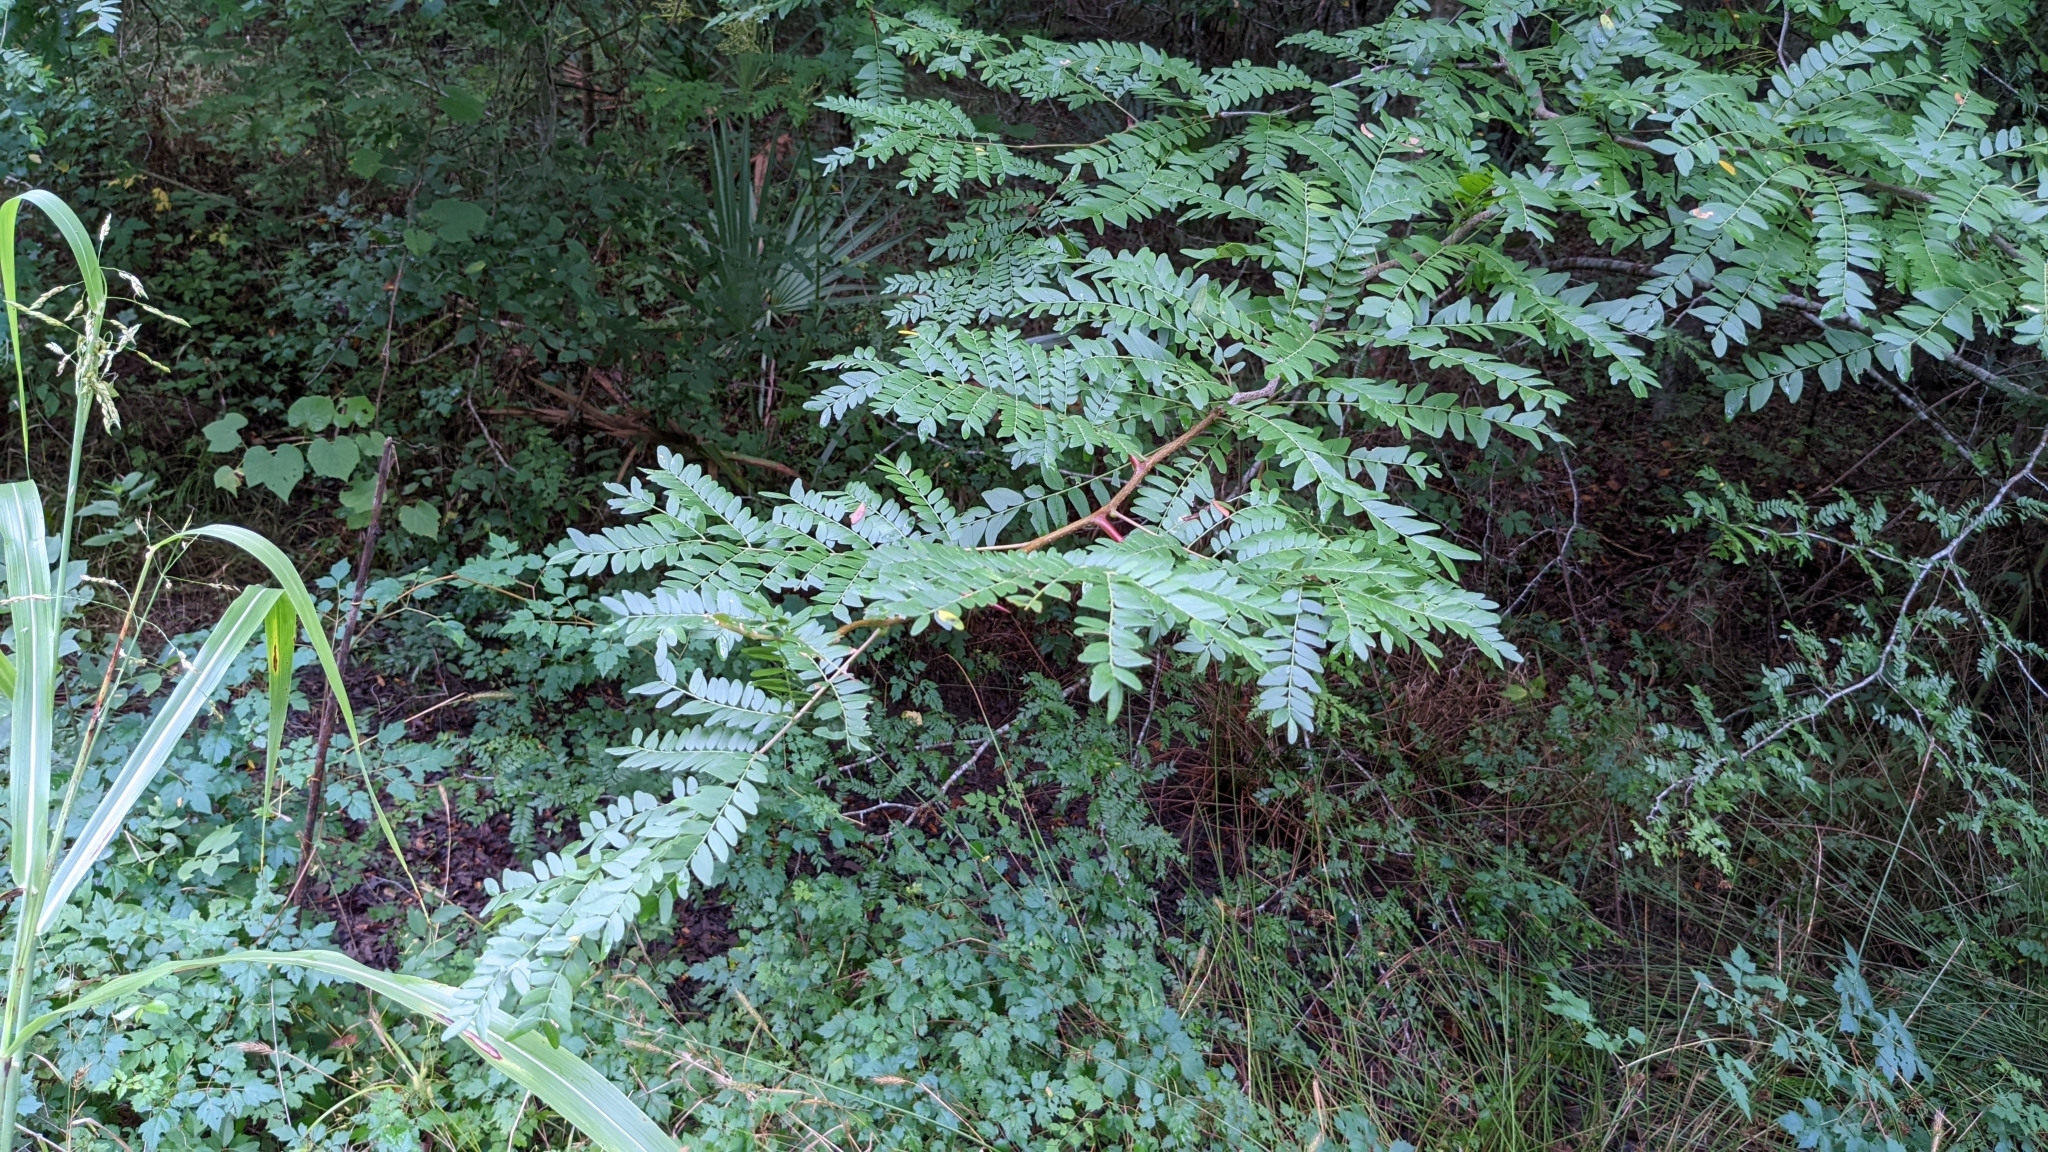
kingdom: Plantae
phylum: Tracheophyta
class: Magnoliopsida
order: Fabales
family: Fabaceae
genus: Gleditsia
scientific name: Gleditsia triacanthos
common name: Common honeylocust
